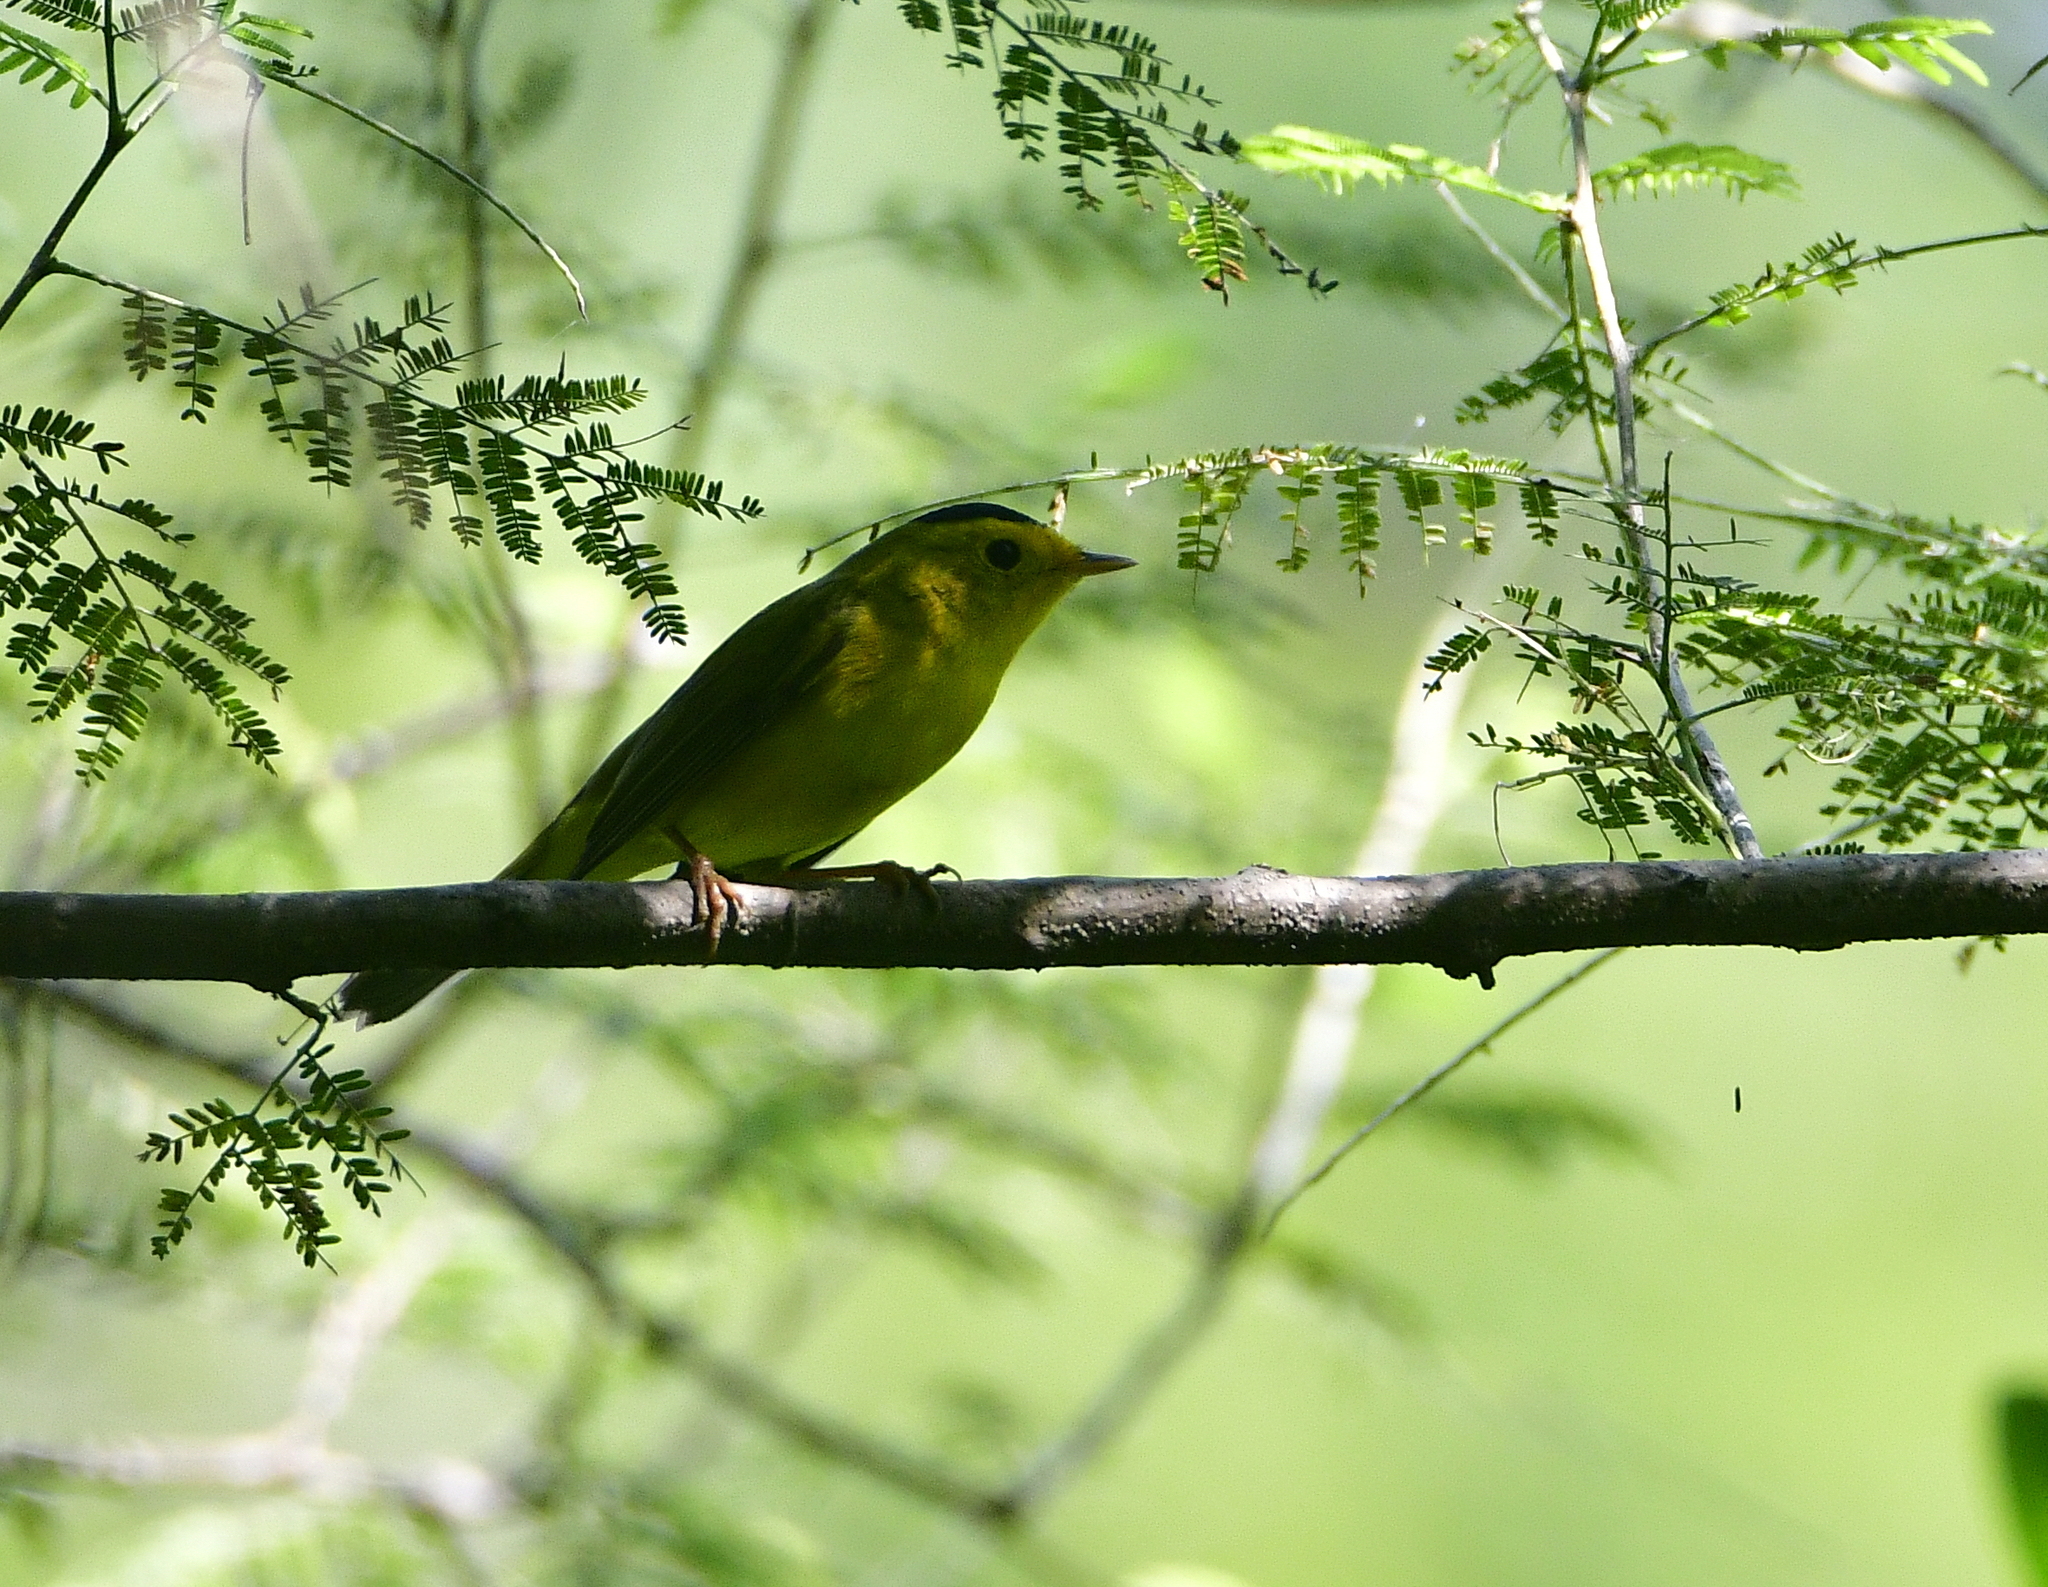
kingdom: Animalia
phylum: Chordata
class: Aves
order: Passeriformes
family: Parulidae
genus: Cardellina
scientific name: Cardellina pusilla
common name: Wilson's warbler
